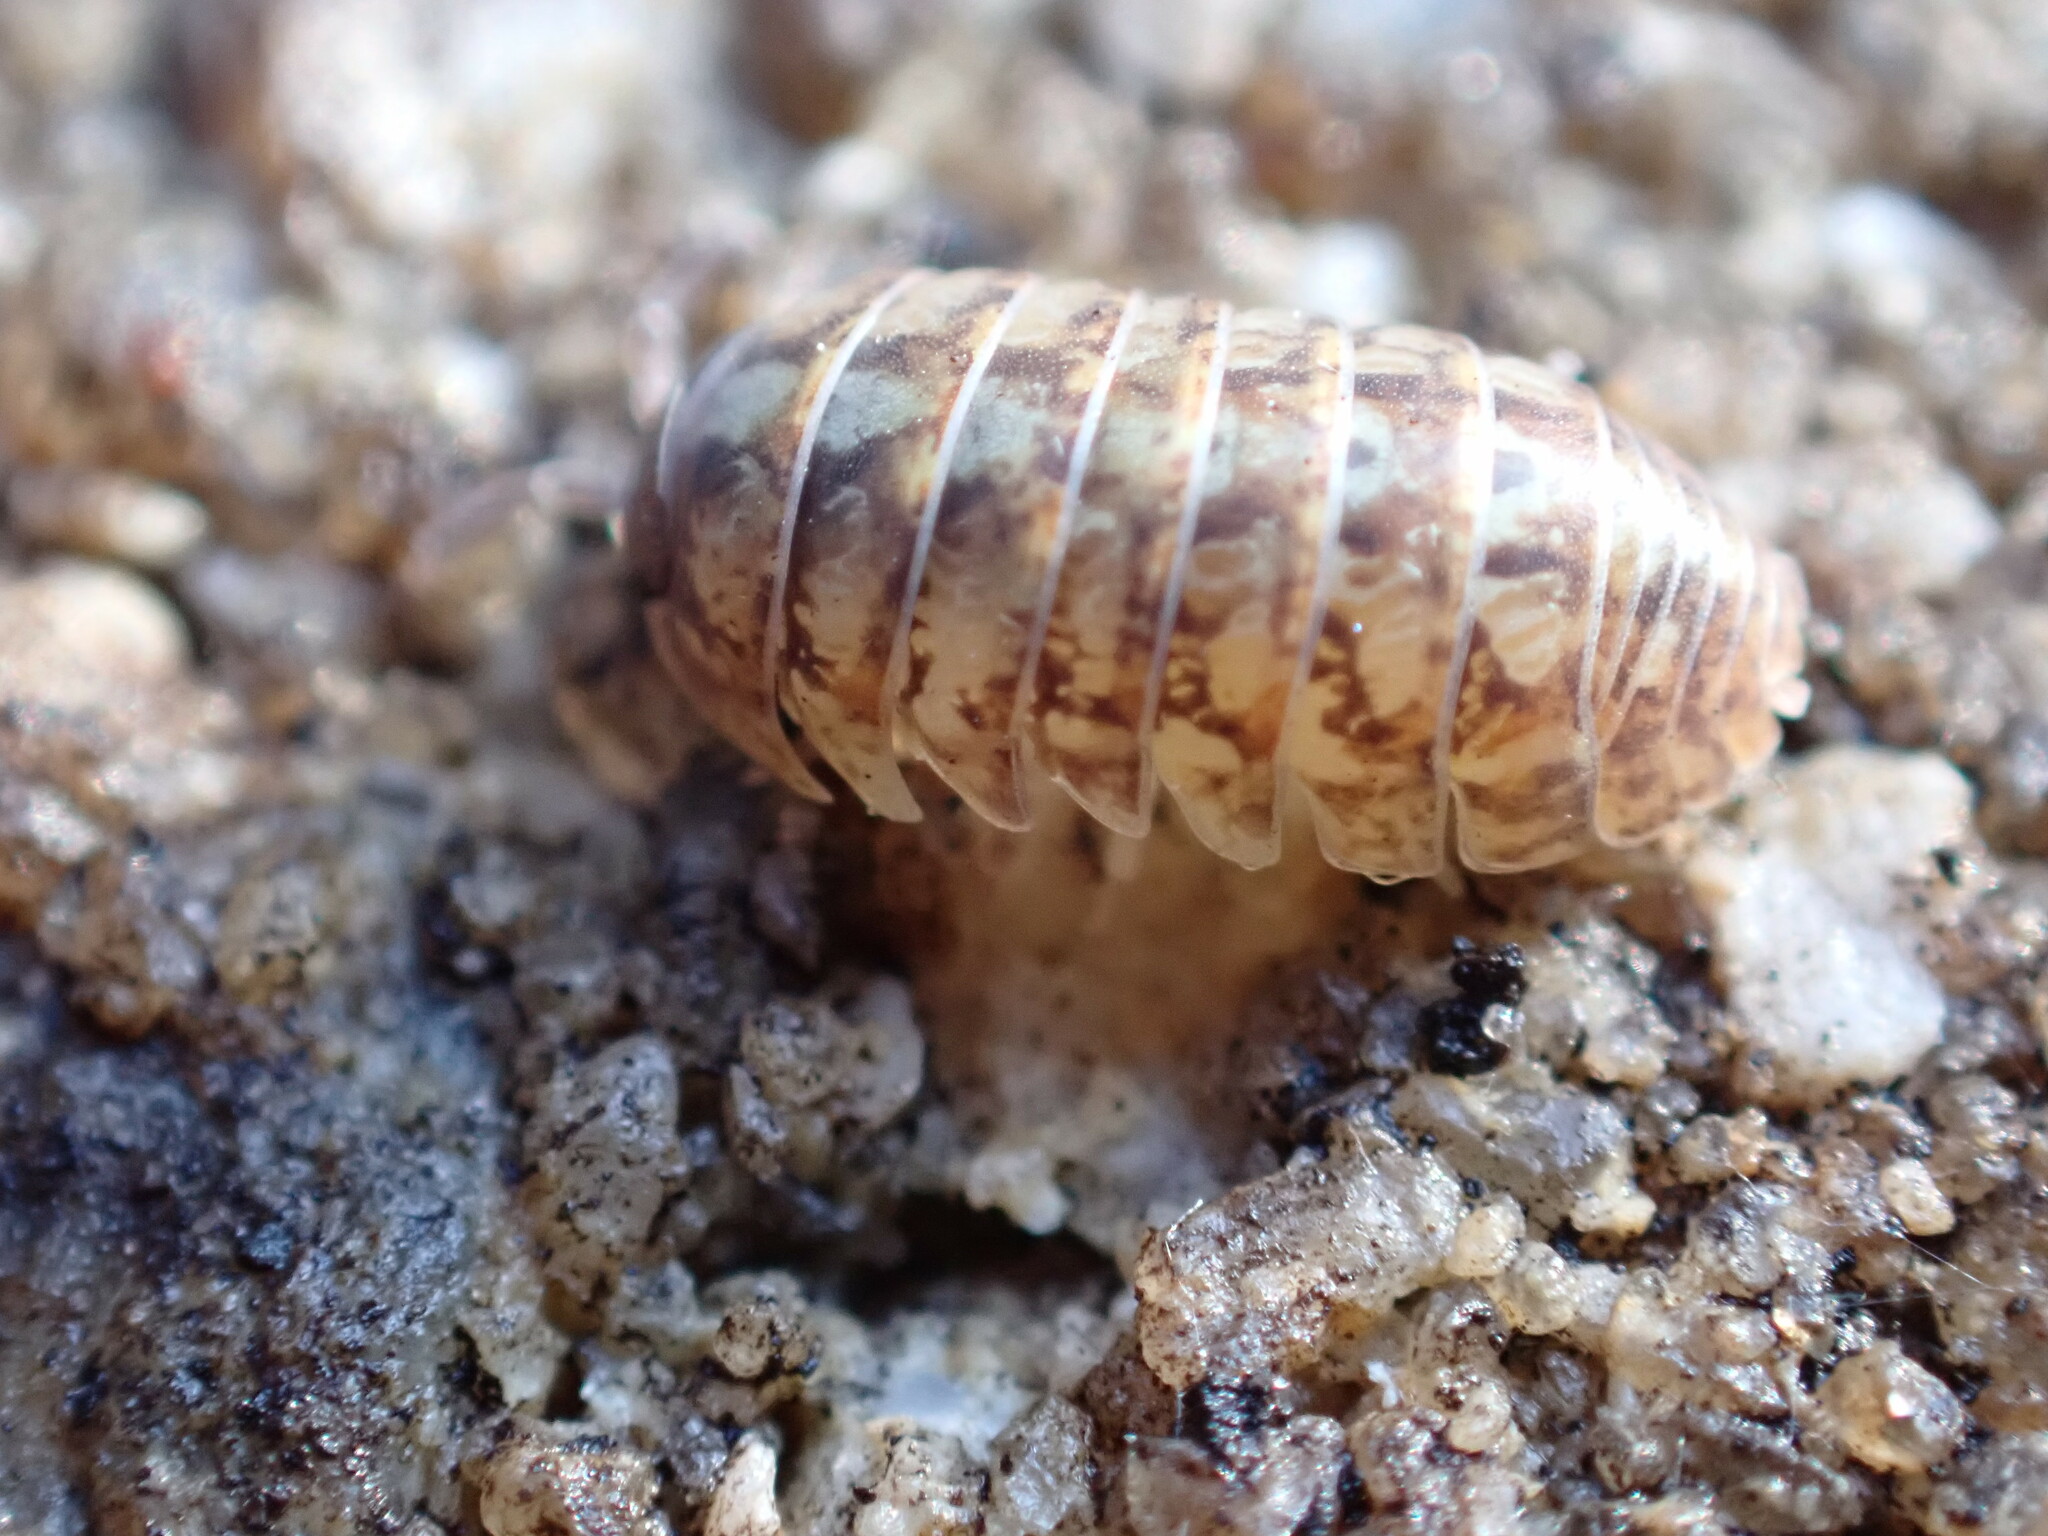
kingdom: Animalia
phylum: Arthropoda
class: Malacostraca
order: Isopoda
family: Armadillidiidae
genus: Armadillidium
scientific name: Armadillidium vulgare
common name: Common pill woodlouse
